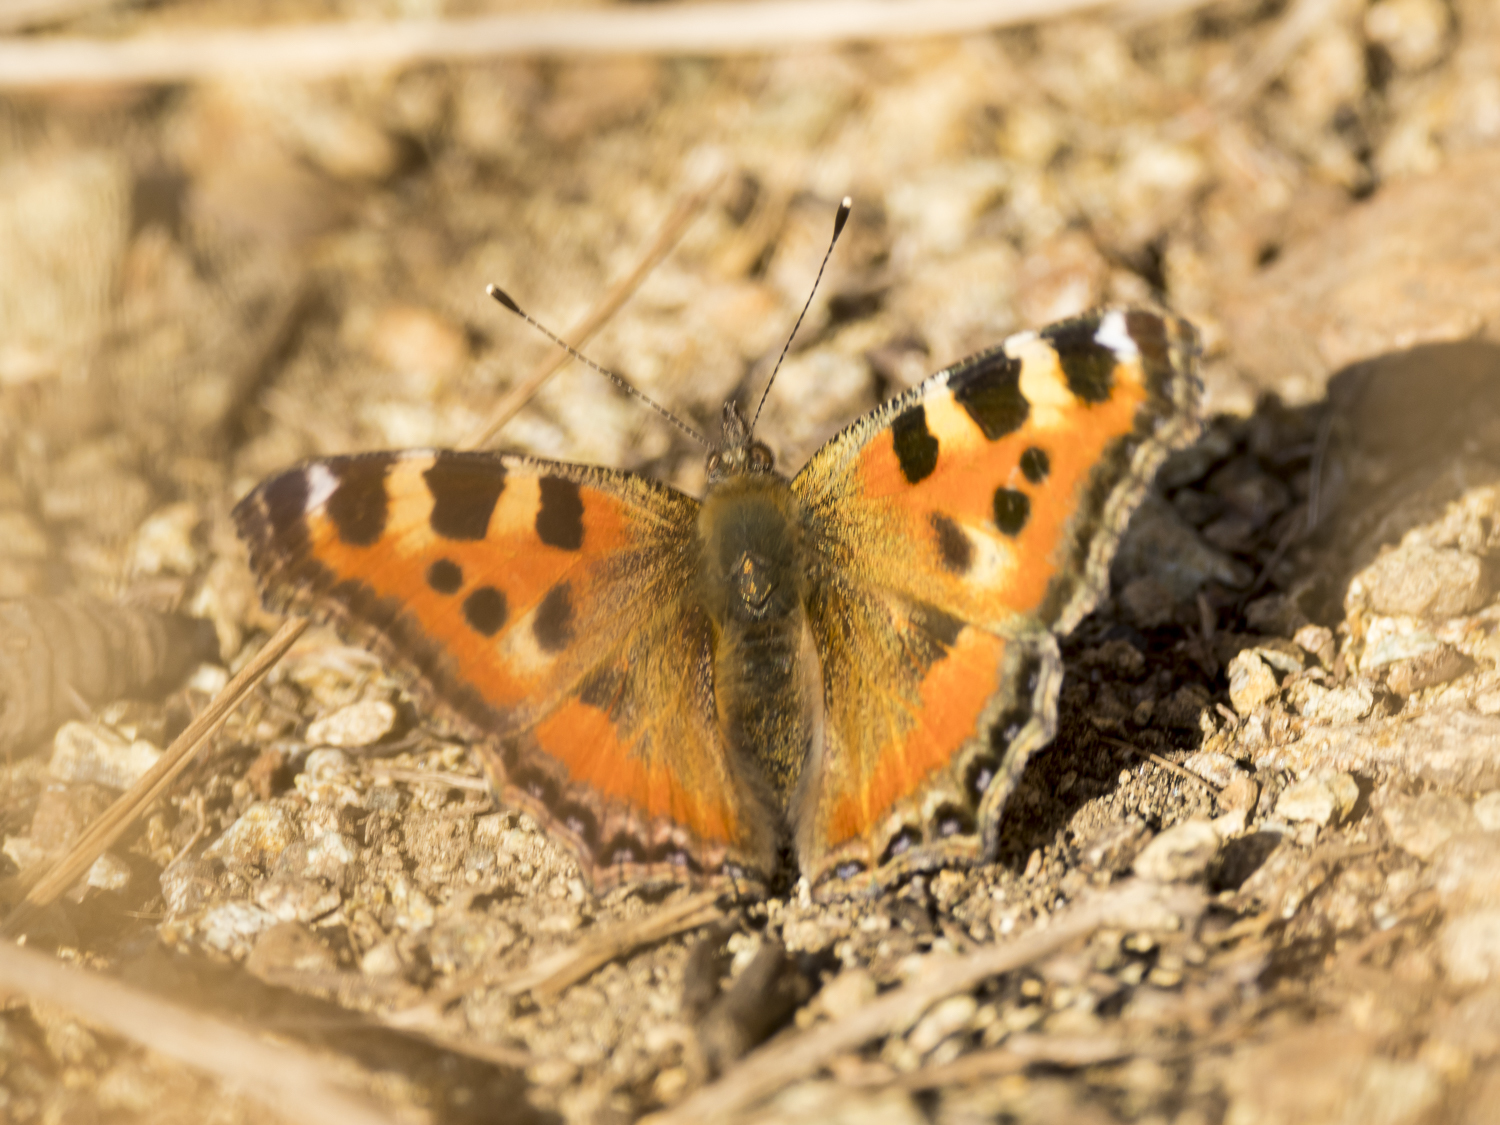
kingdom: Animalia
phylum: Arthropoda
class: Insecta
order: Lepidoptera
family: Nymphalidae
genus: Aglais
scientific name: Aglais caschmirensis
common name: Indian tortoiseshell
